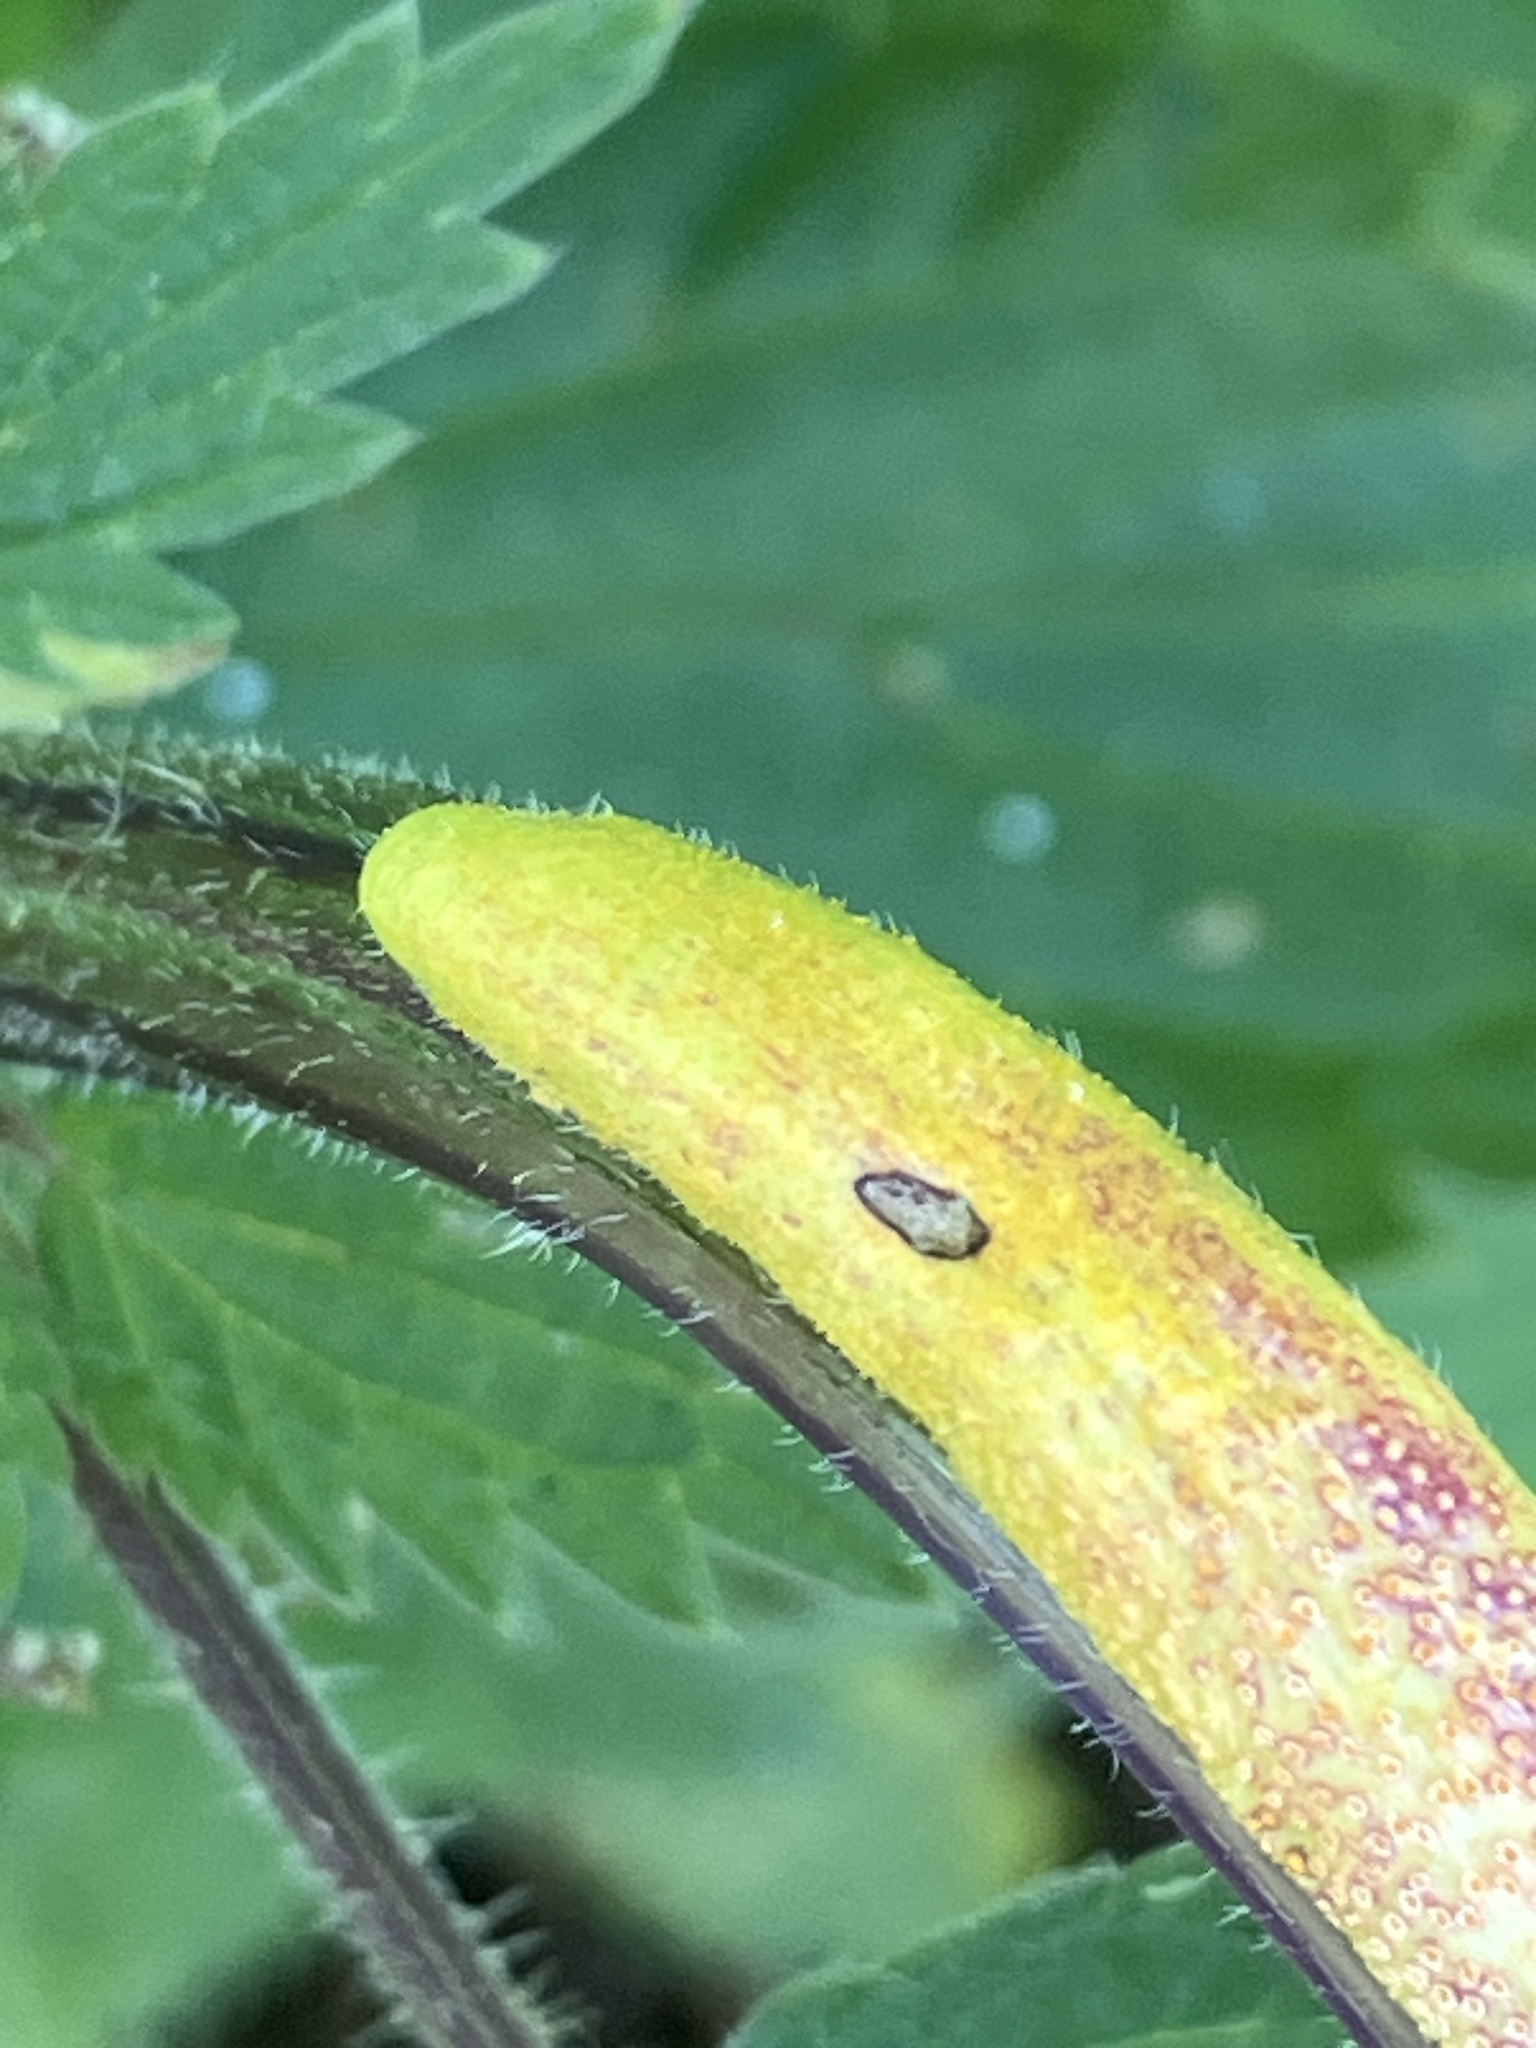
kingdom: Fungi
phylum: Basidiomycota
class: Pucciniomycetes
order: Pucciniales
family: Pucciniaceae
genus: Puccinia
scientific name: Puccinia urticata
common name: Nettle clustercup rust fungus
